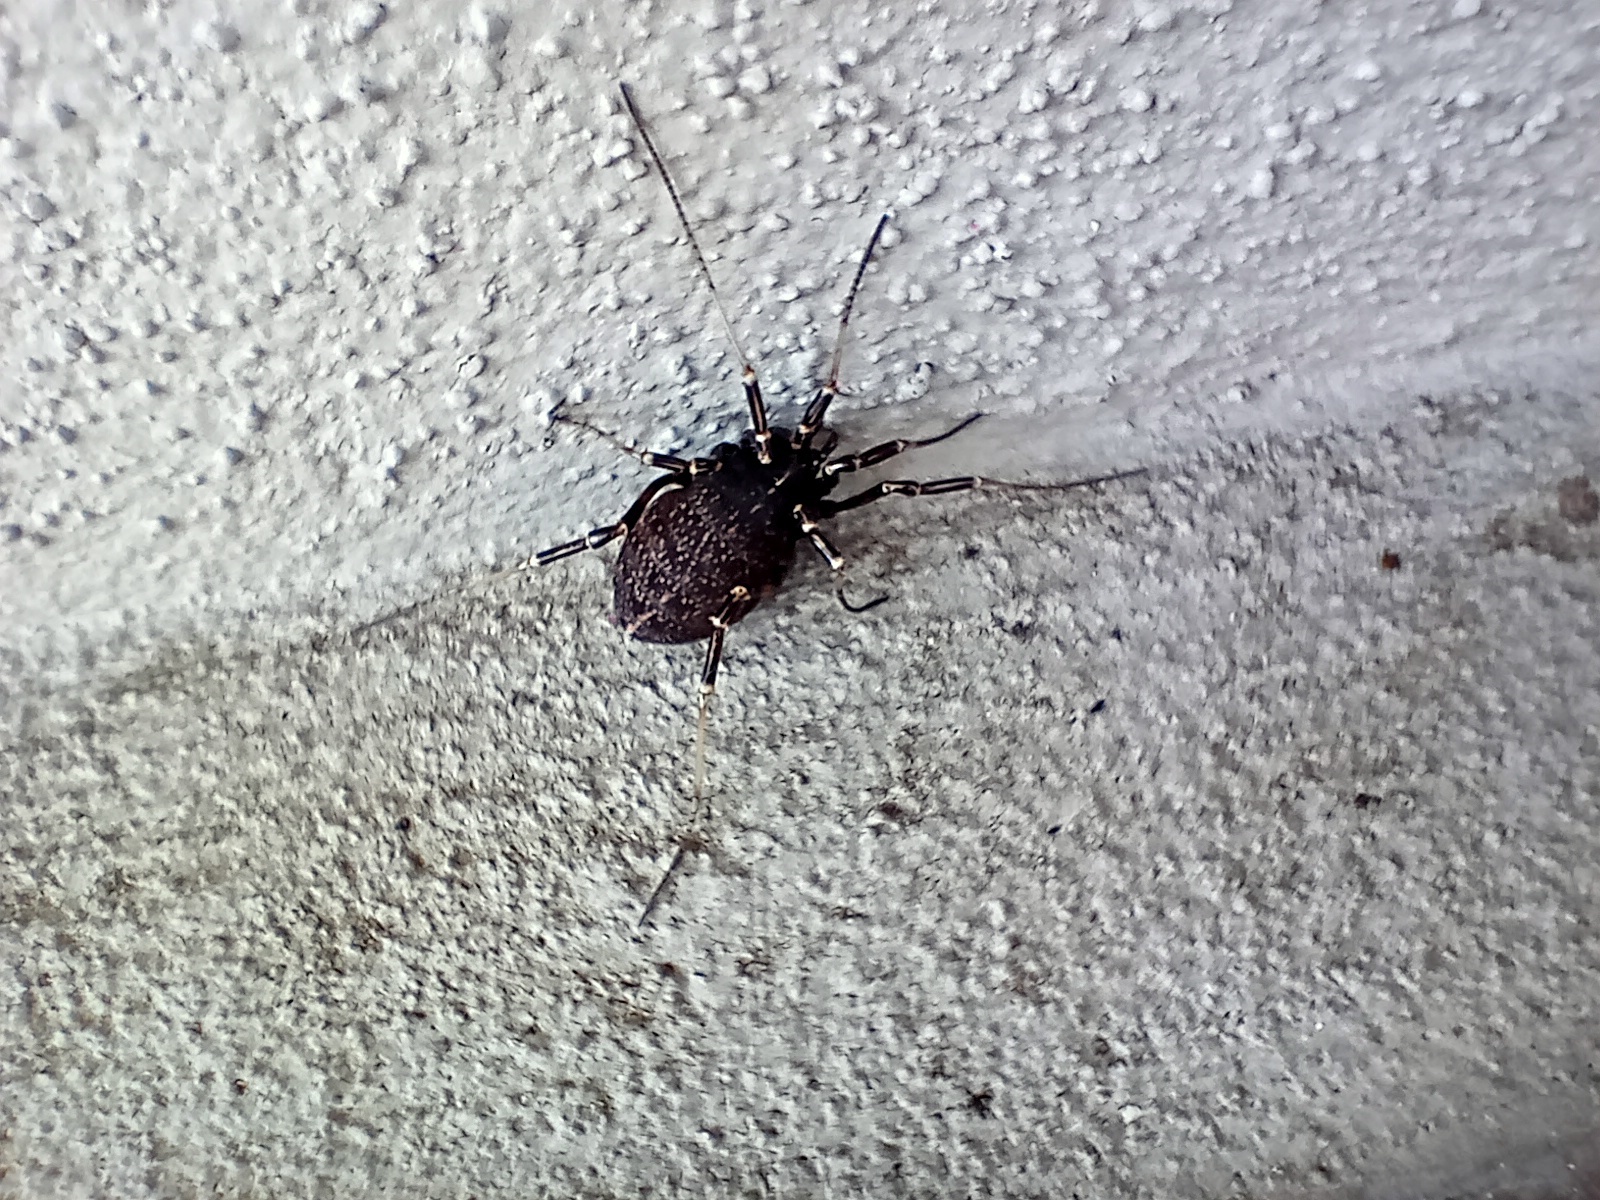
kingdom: Animalia
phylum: Arthropoda
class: Arachnida
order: Opiliones
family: Phalangiidae
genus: Egaenus
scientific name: Egaenus convexus
